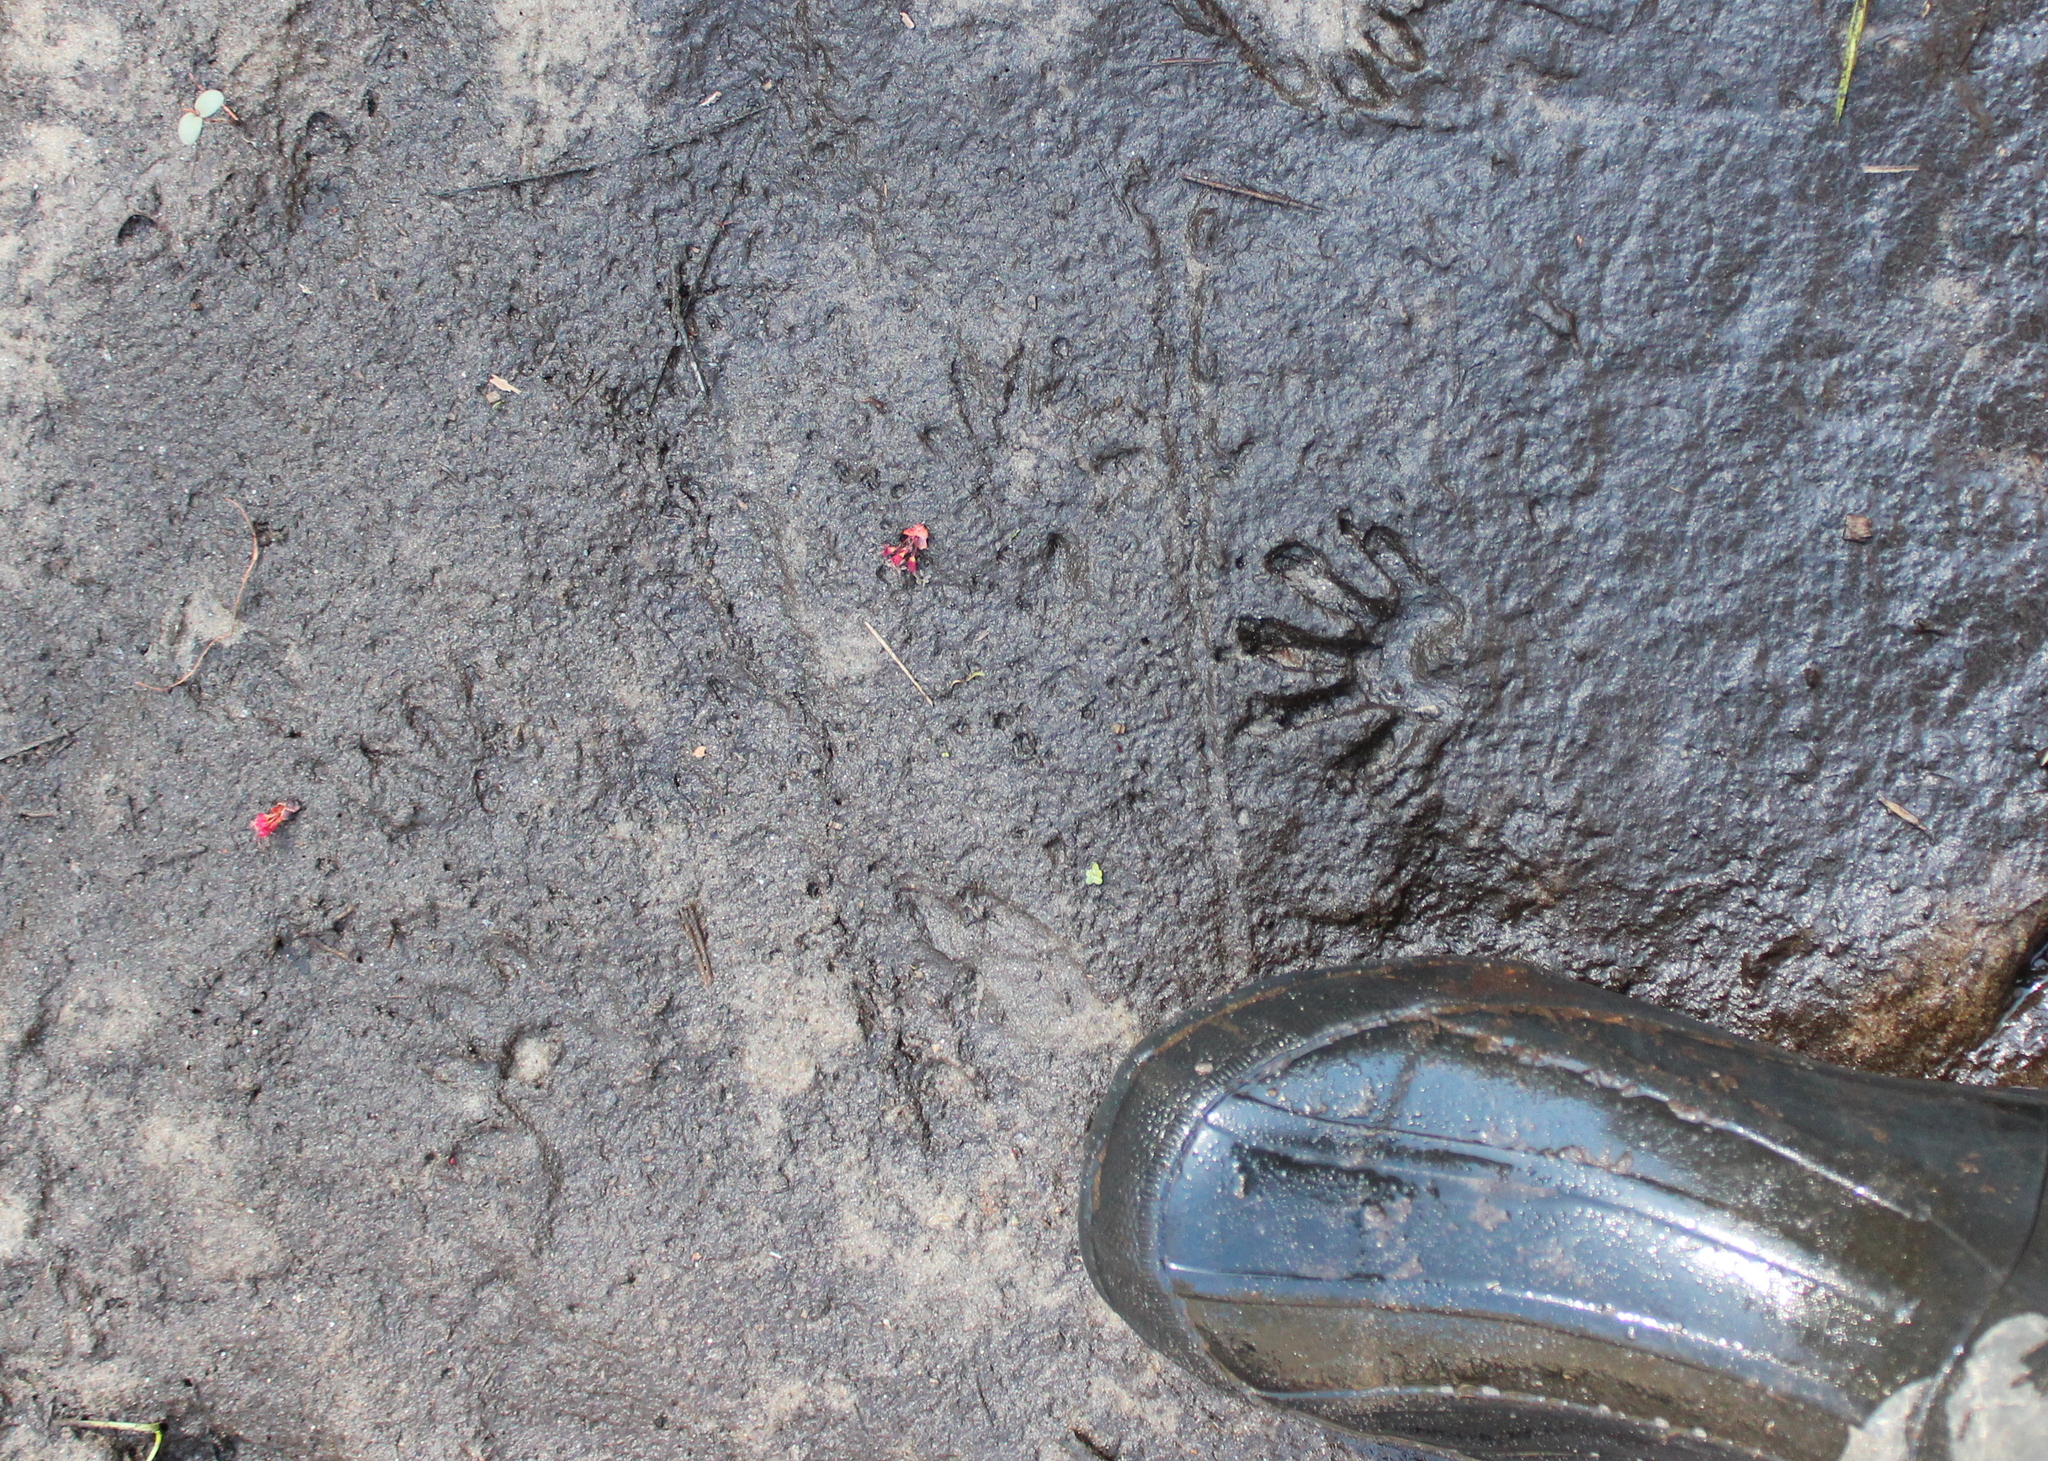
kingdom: Animalia
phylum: Chordata
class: Mammalia
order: Carnivora
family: Procyonidae
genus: Procyon
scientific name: Procyon lotor
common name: Raccoon
